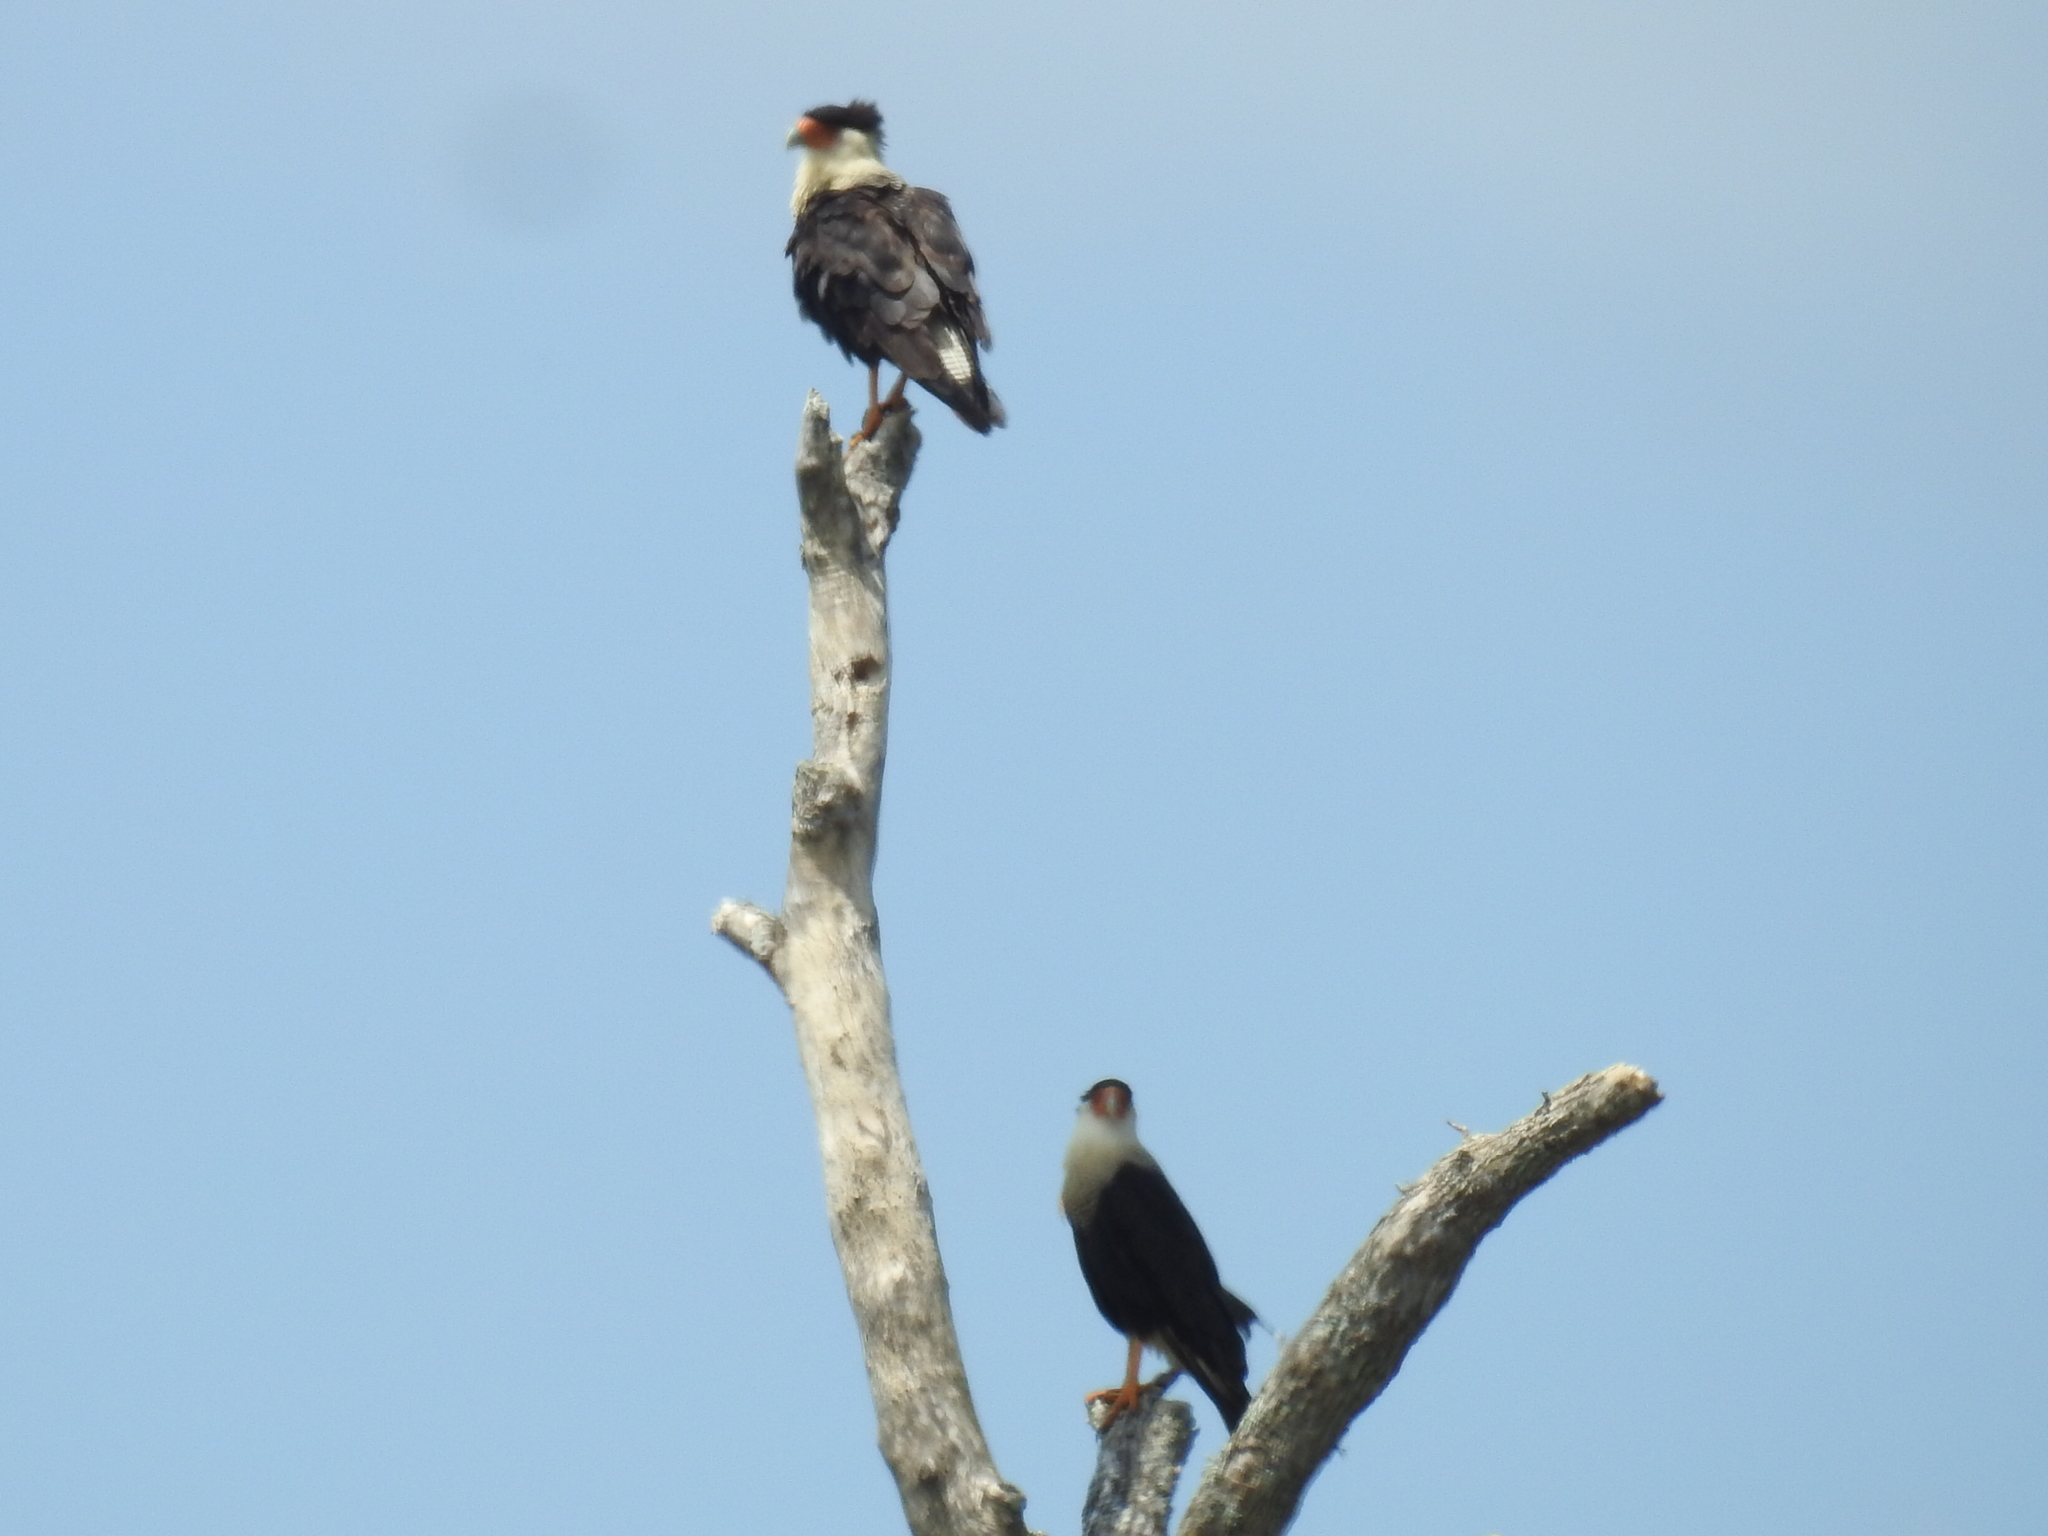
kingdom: Animalia
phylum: Chordata
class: Aves
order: Falconiformes
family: Falconidae
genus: Caracara
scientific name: Caracara plancus
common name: Southern caracara
